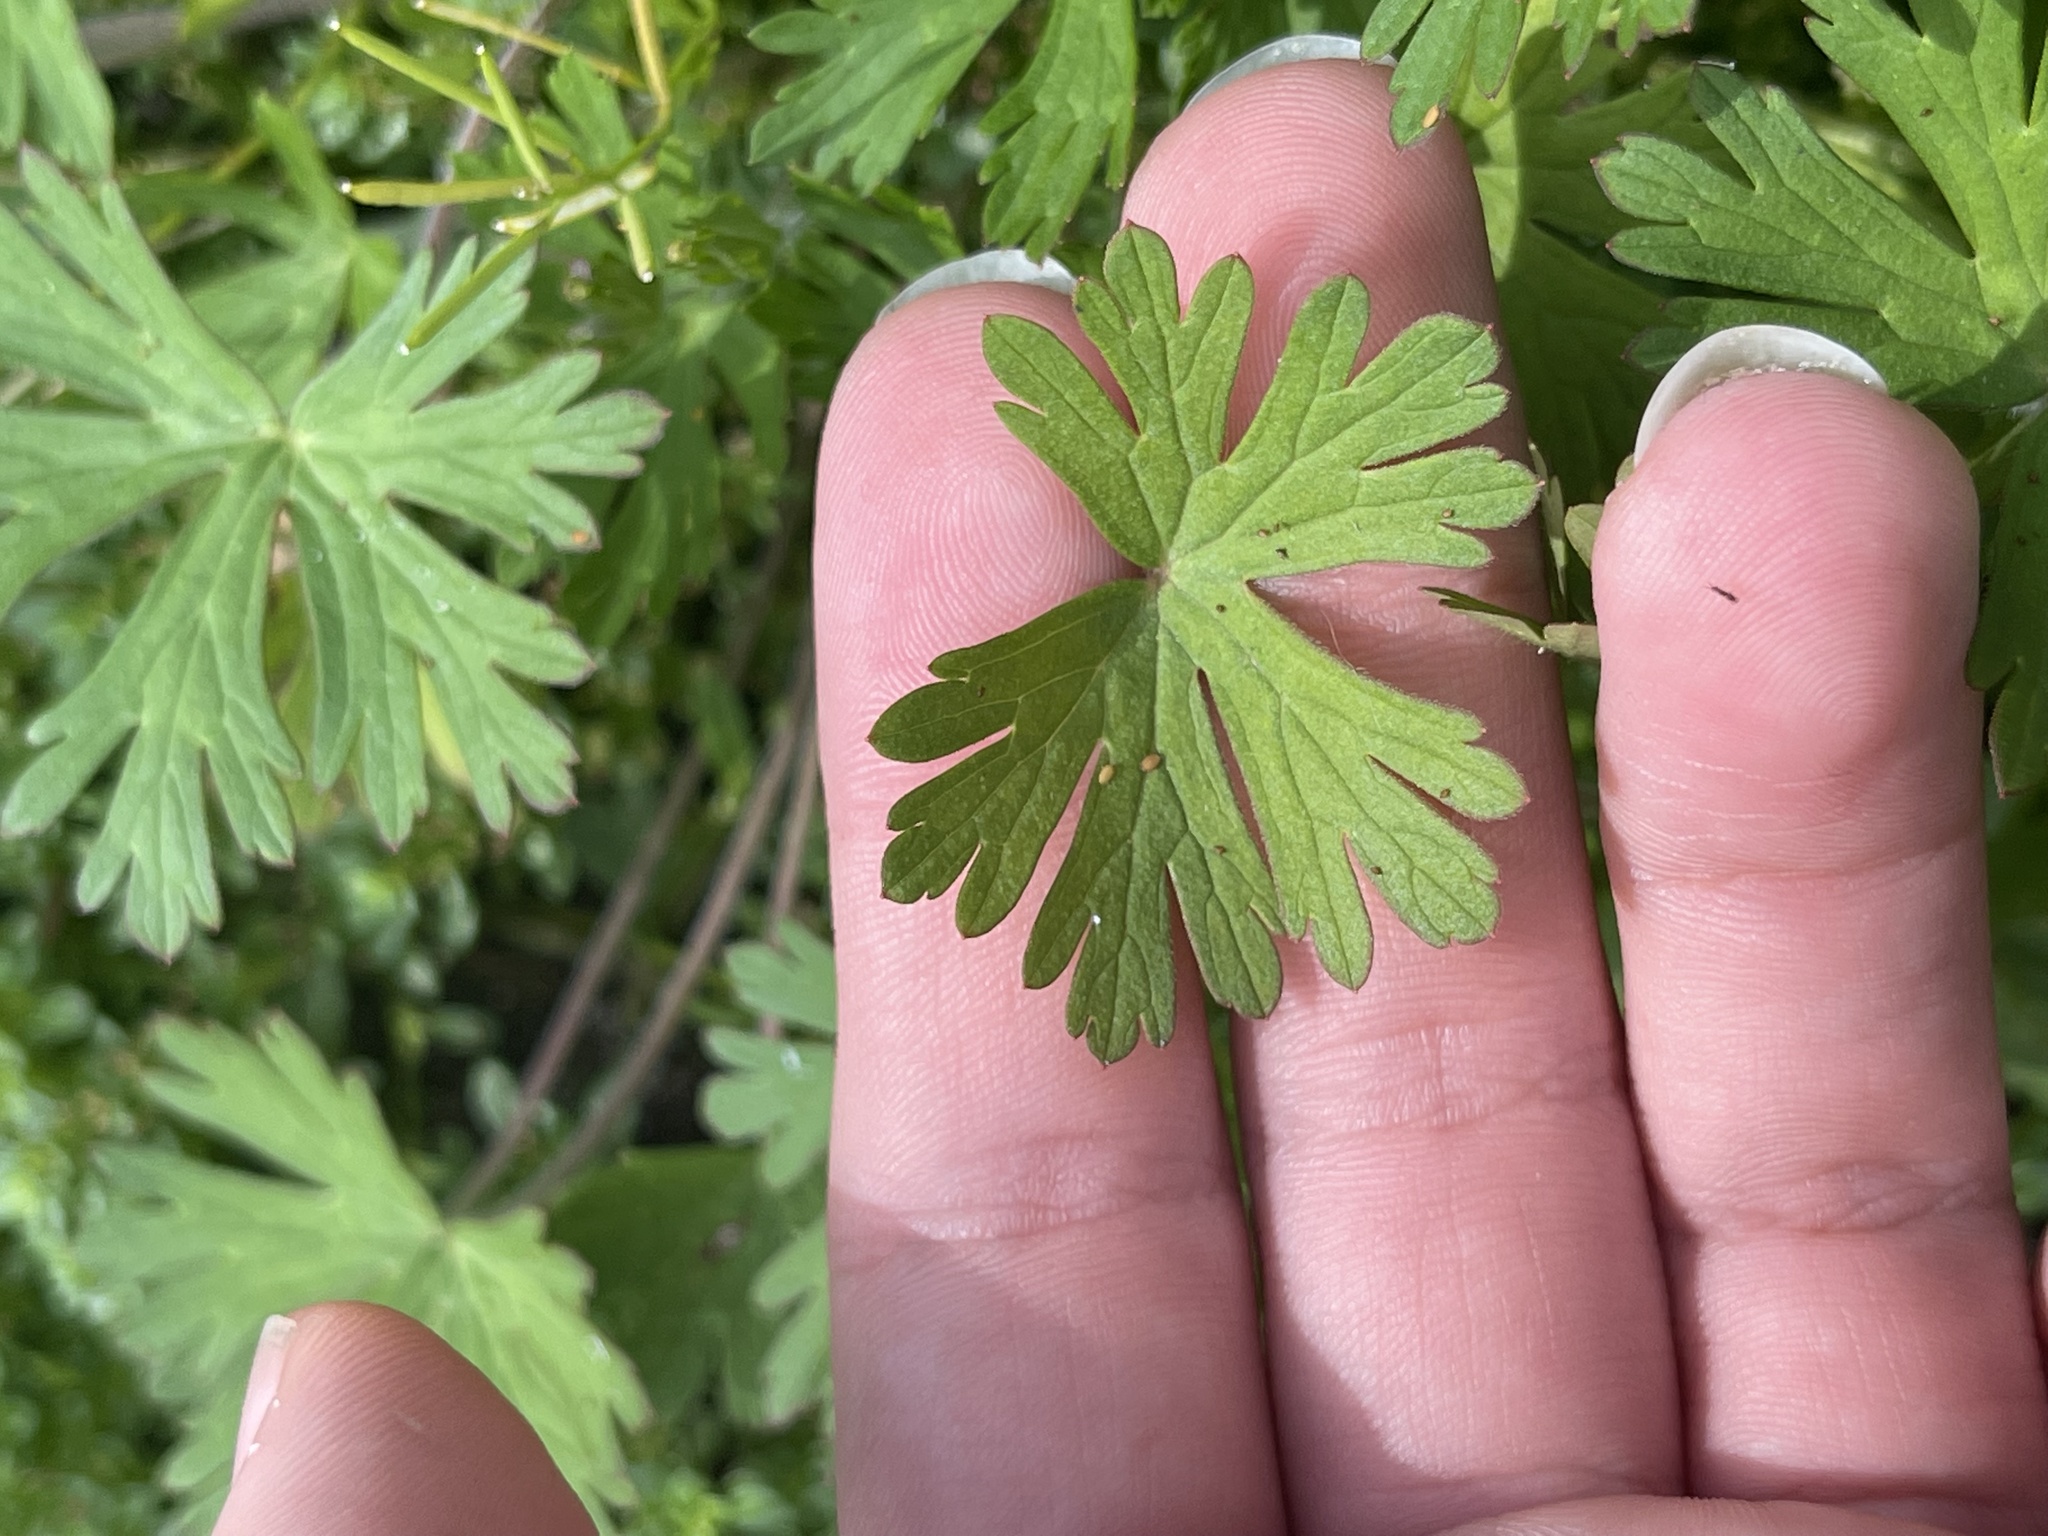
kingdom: Plantae
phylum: Tracheophyta
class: Magnoliopsida
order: Geraniales
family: Geraniaceae
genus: Geranium
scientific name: Geranium carolinianum
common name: Carolina crane's-bill
